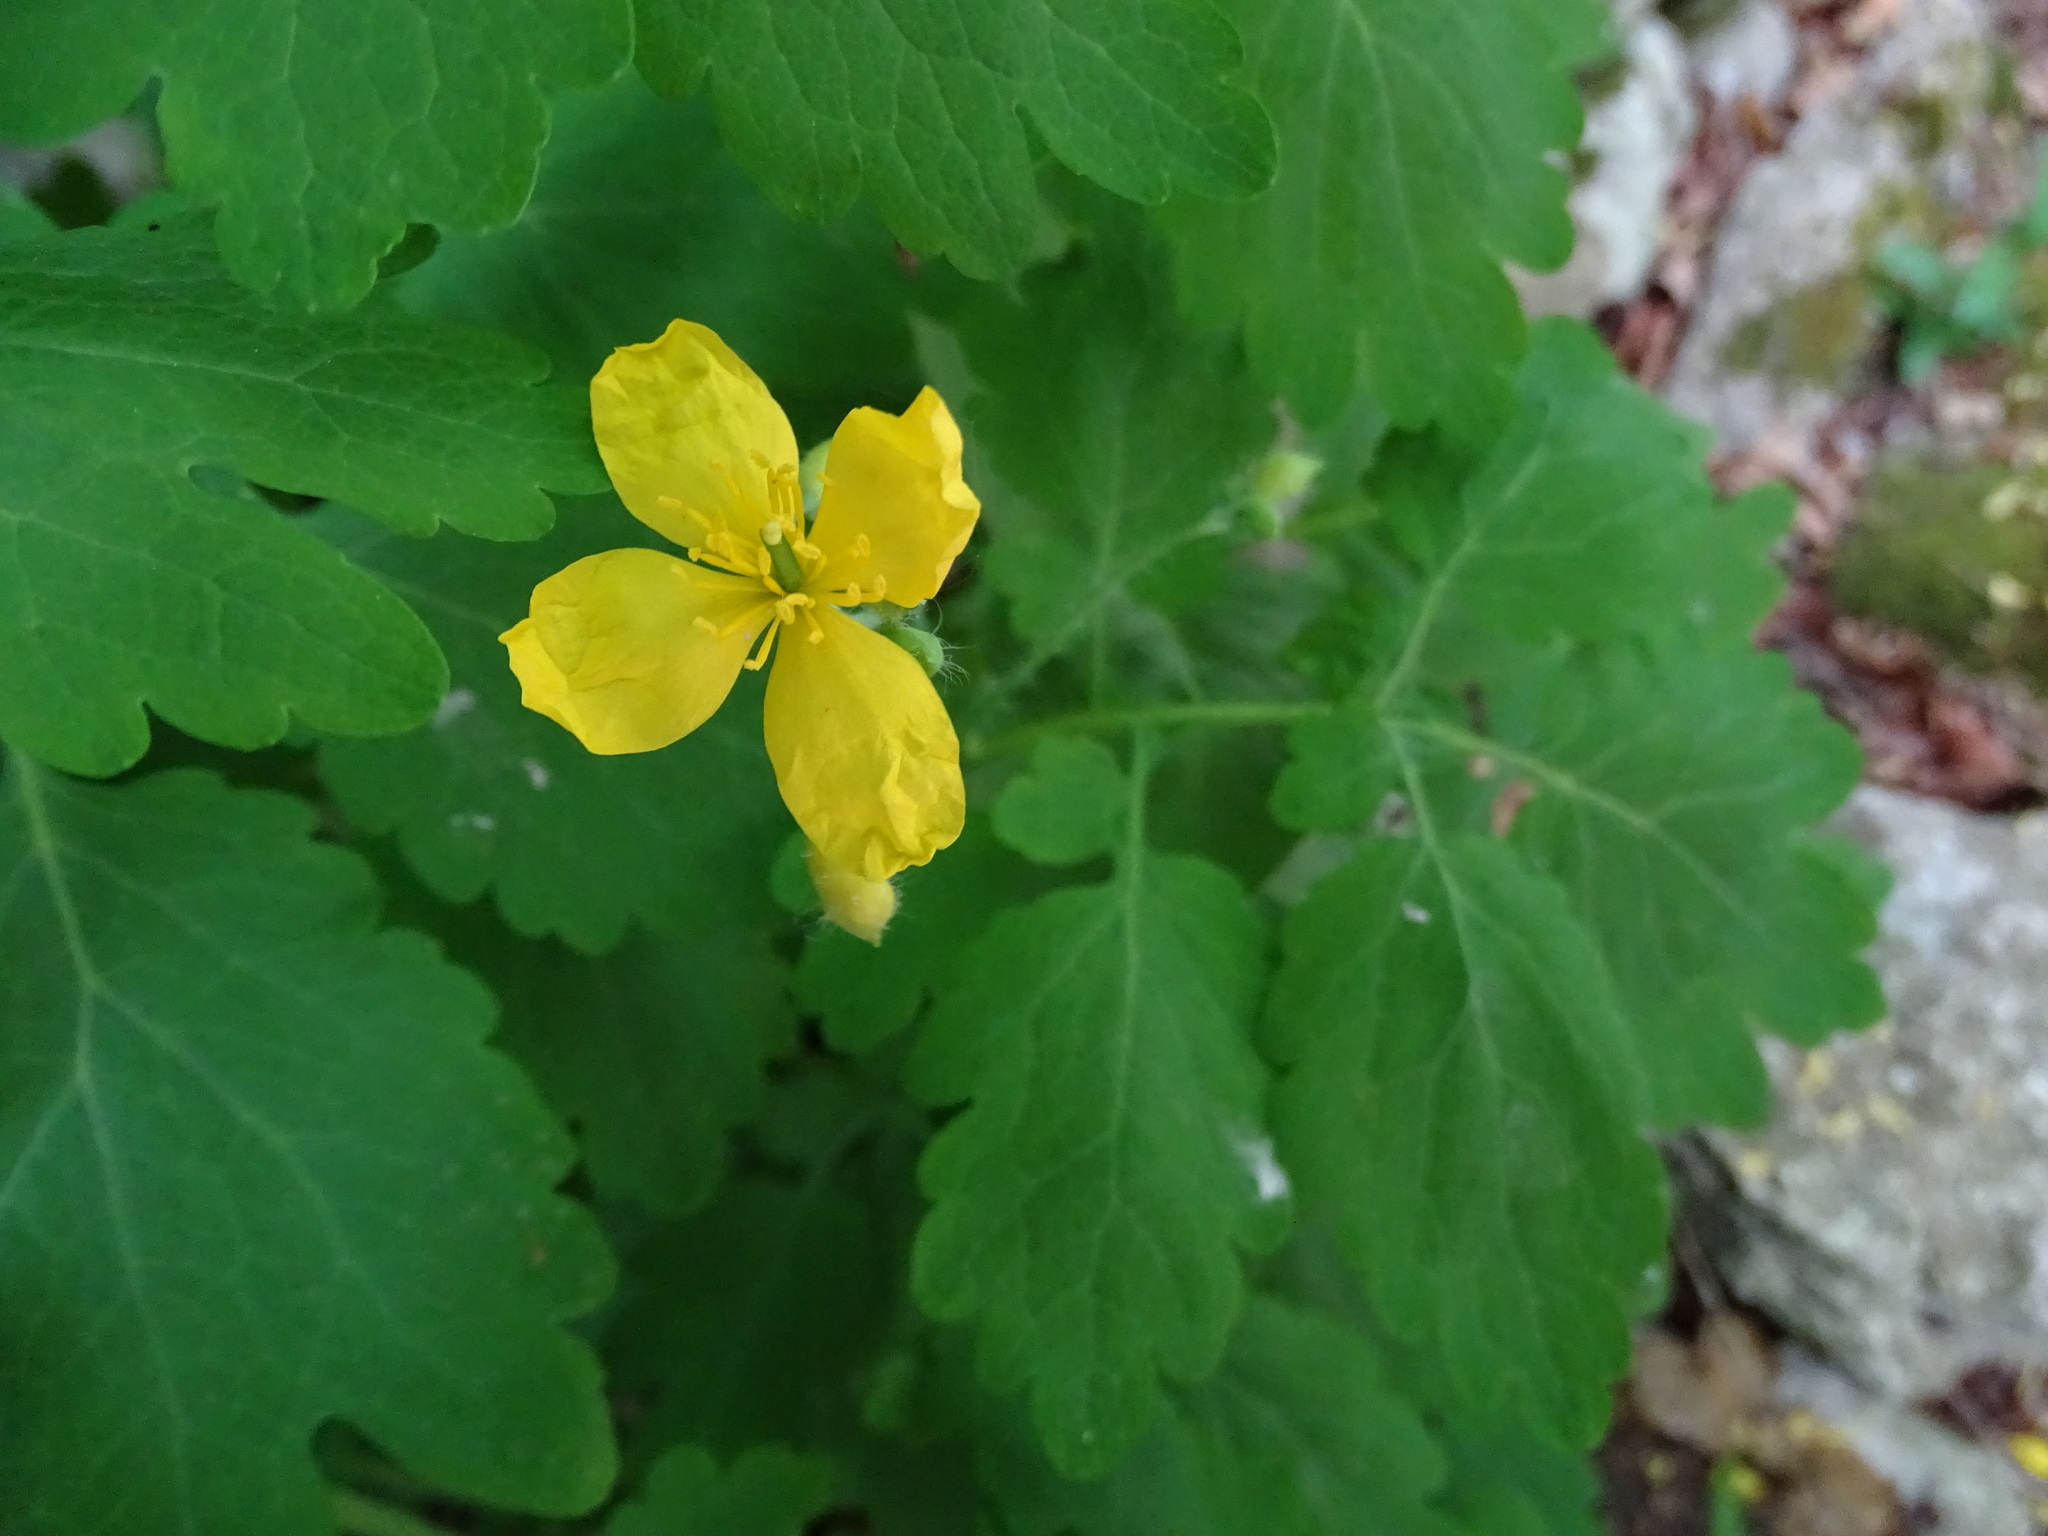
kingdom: Plantae
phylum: Tracheophyta
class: Magnoliopsida
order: Ranunculales
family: Papaveraceae
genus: Chelidonium
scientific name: Chelidonium majus
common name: Greater celandine
